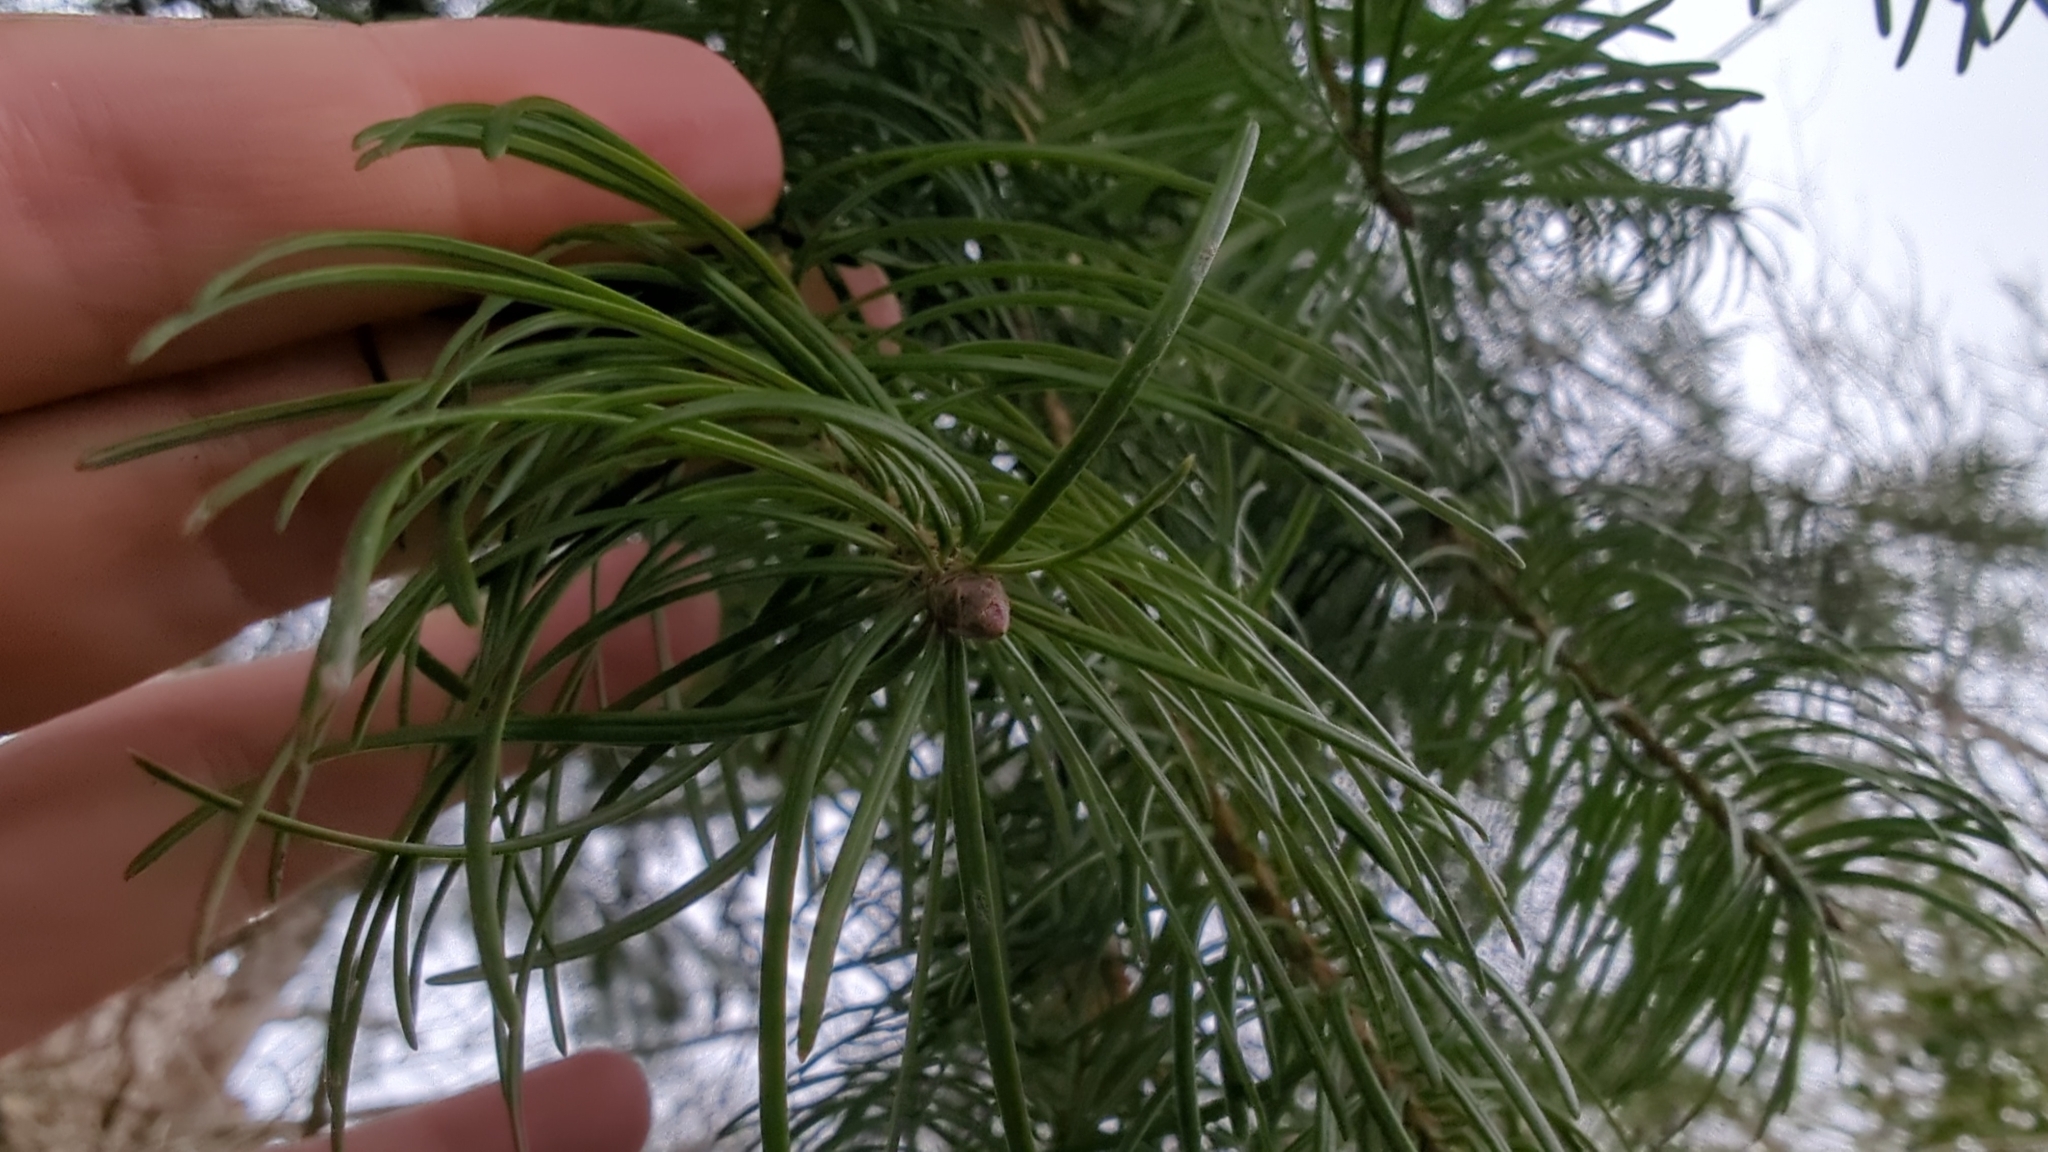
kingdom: Plantae
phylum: Tracheophyta
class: Pinopsida
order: Pinales
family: Pinaceae
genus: Pseudotsuga
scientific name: Pseudotsuga menziesii
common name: Douglas fir
